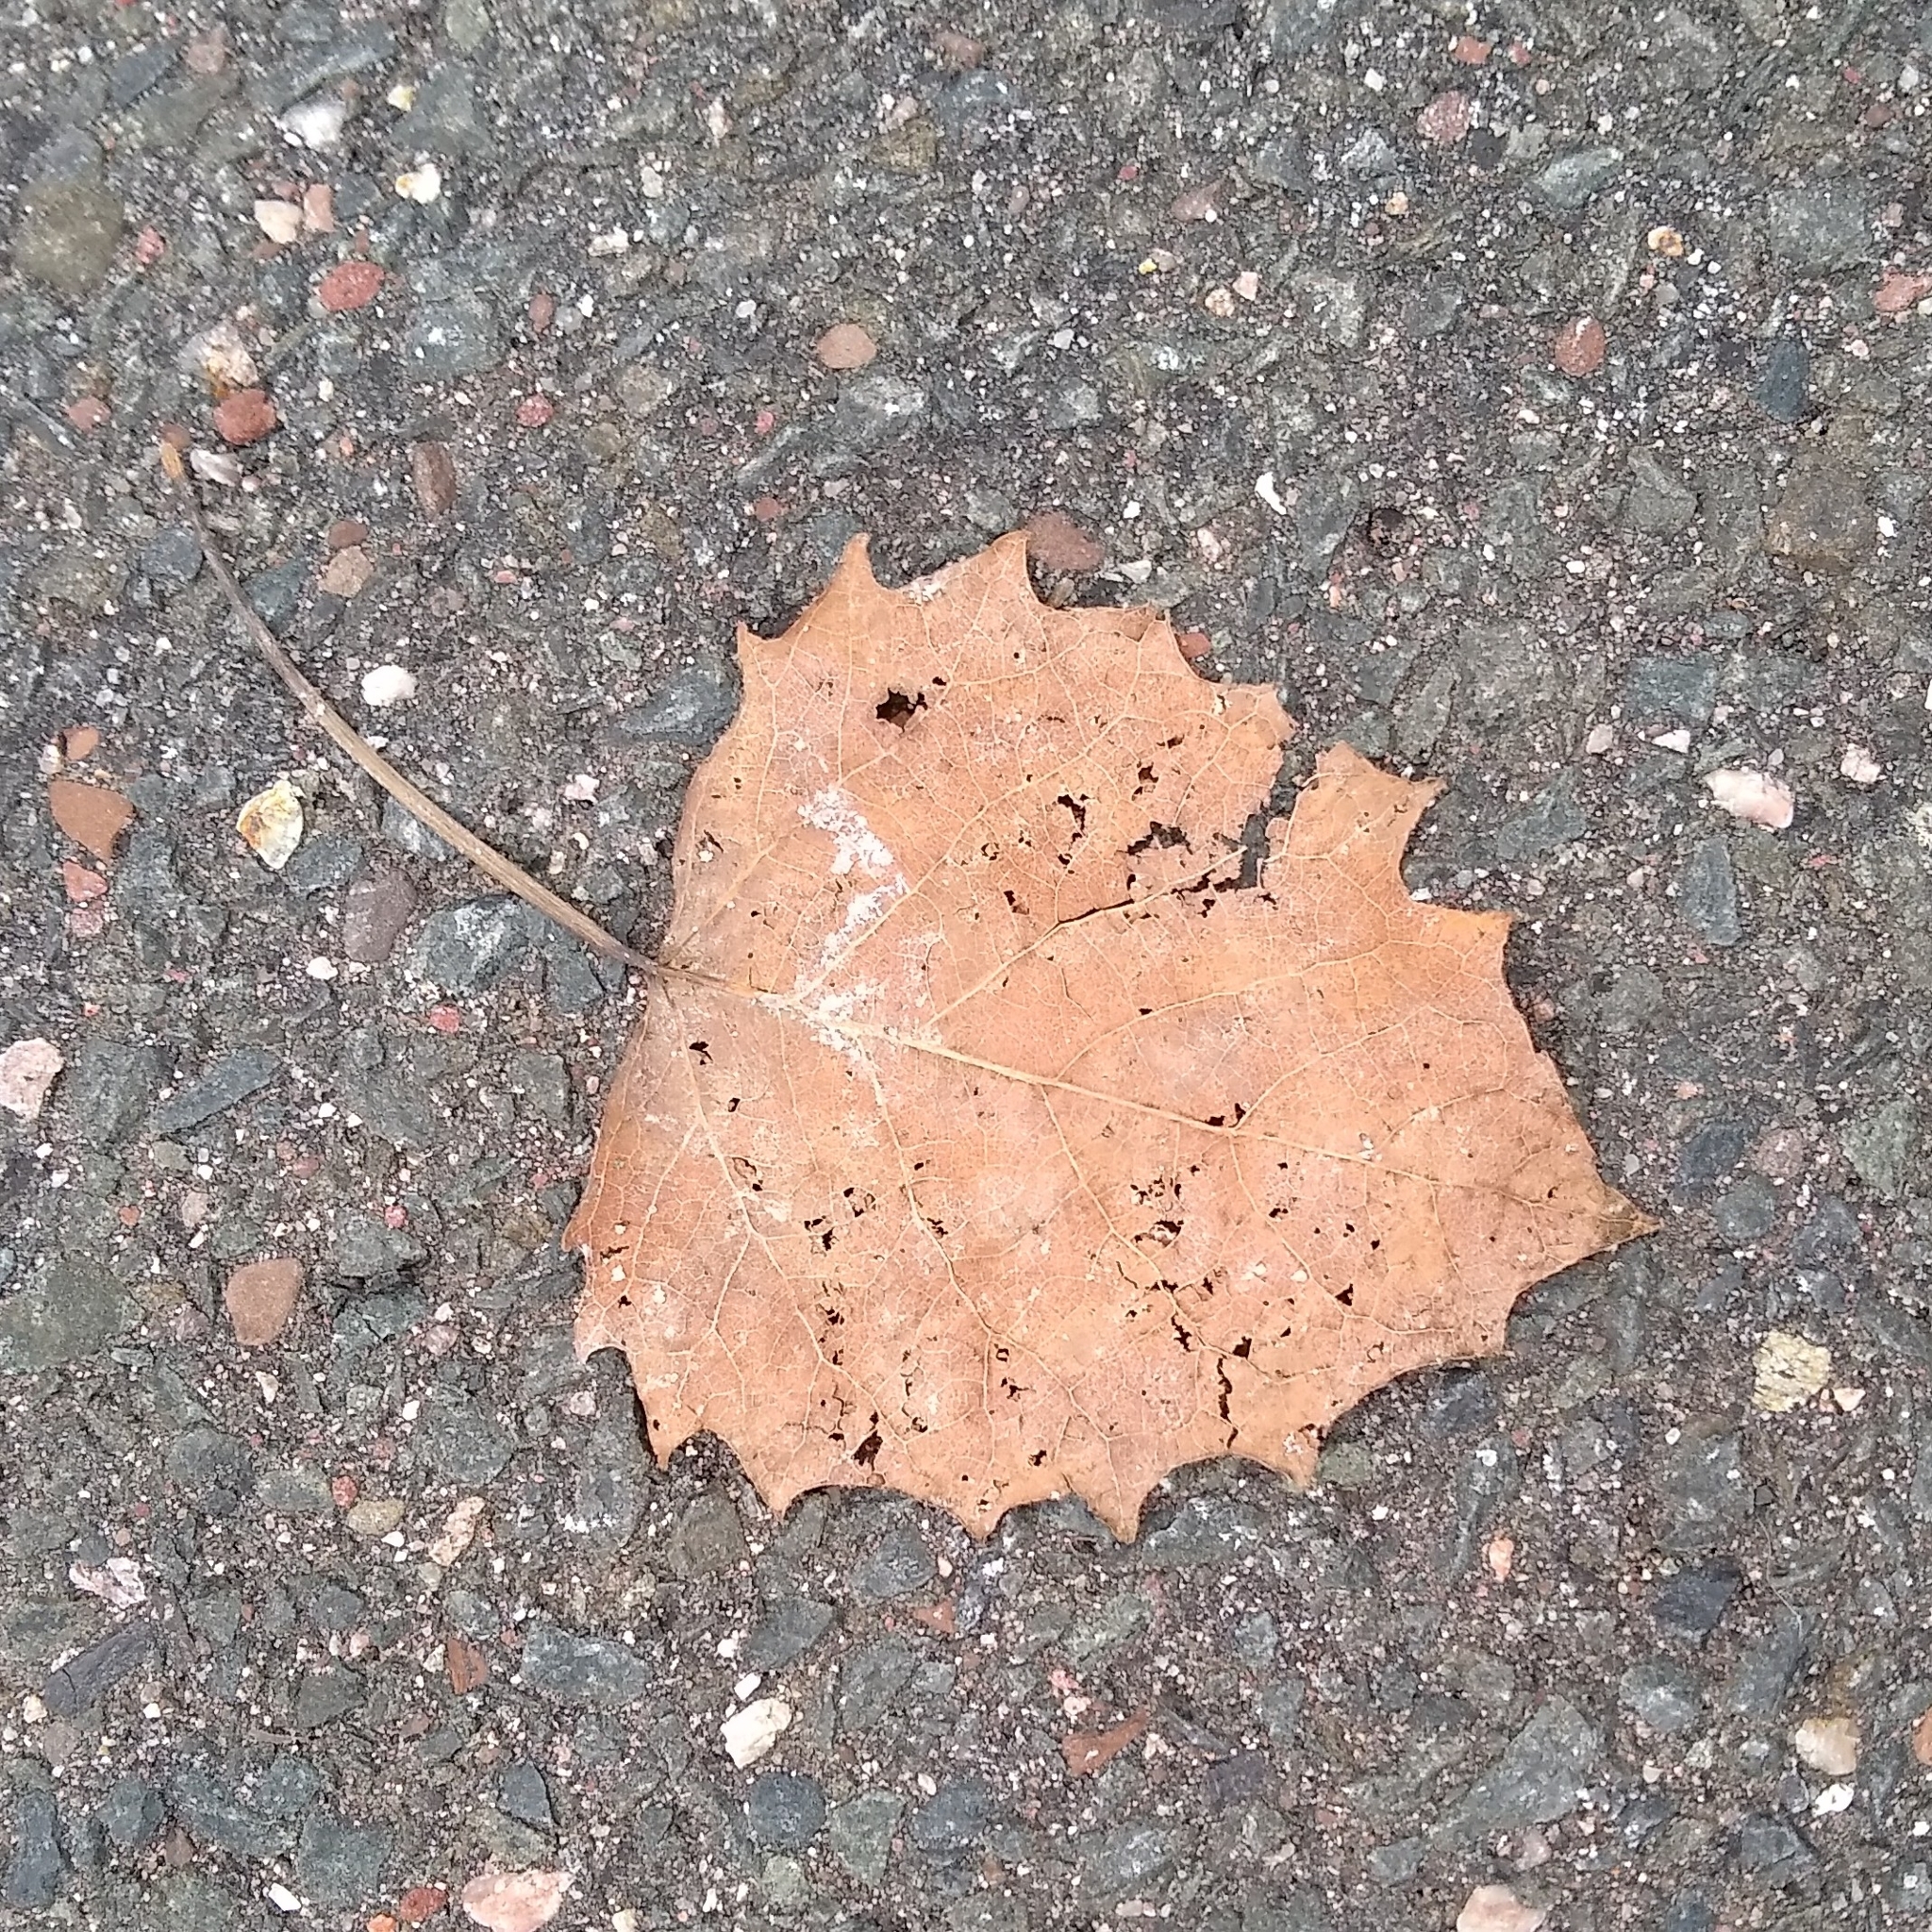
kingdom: Plantae
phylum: Tracheophyta
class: Magnoliopsida
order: Malpighiales
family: Salicaceae
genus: Populus
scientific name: Populus grandidentata
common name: Bigtooth aspen
